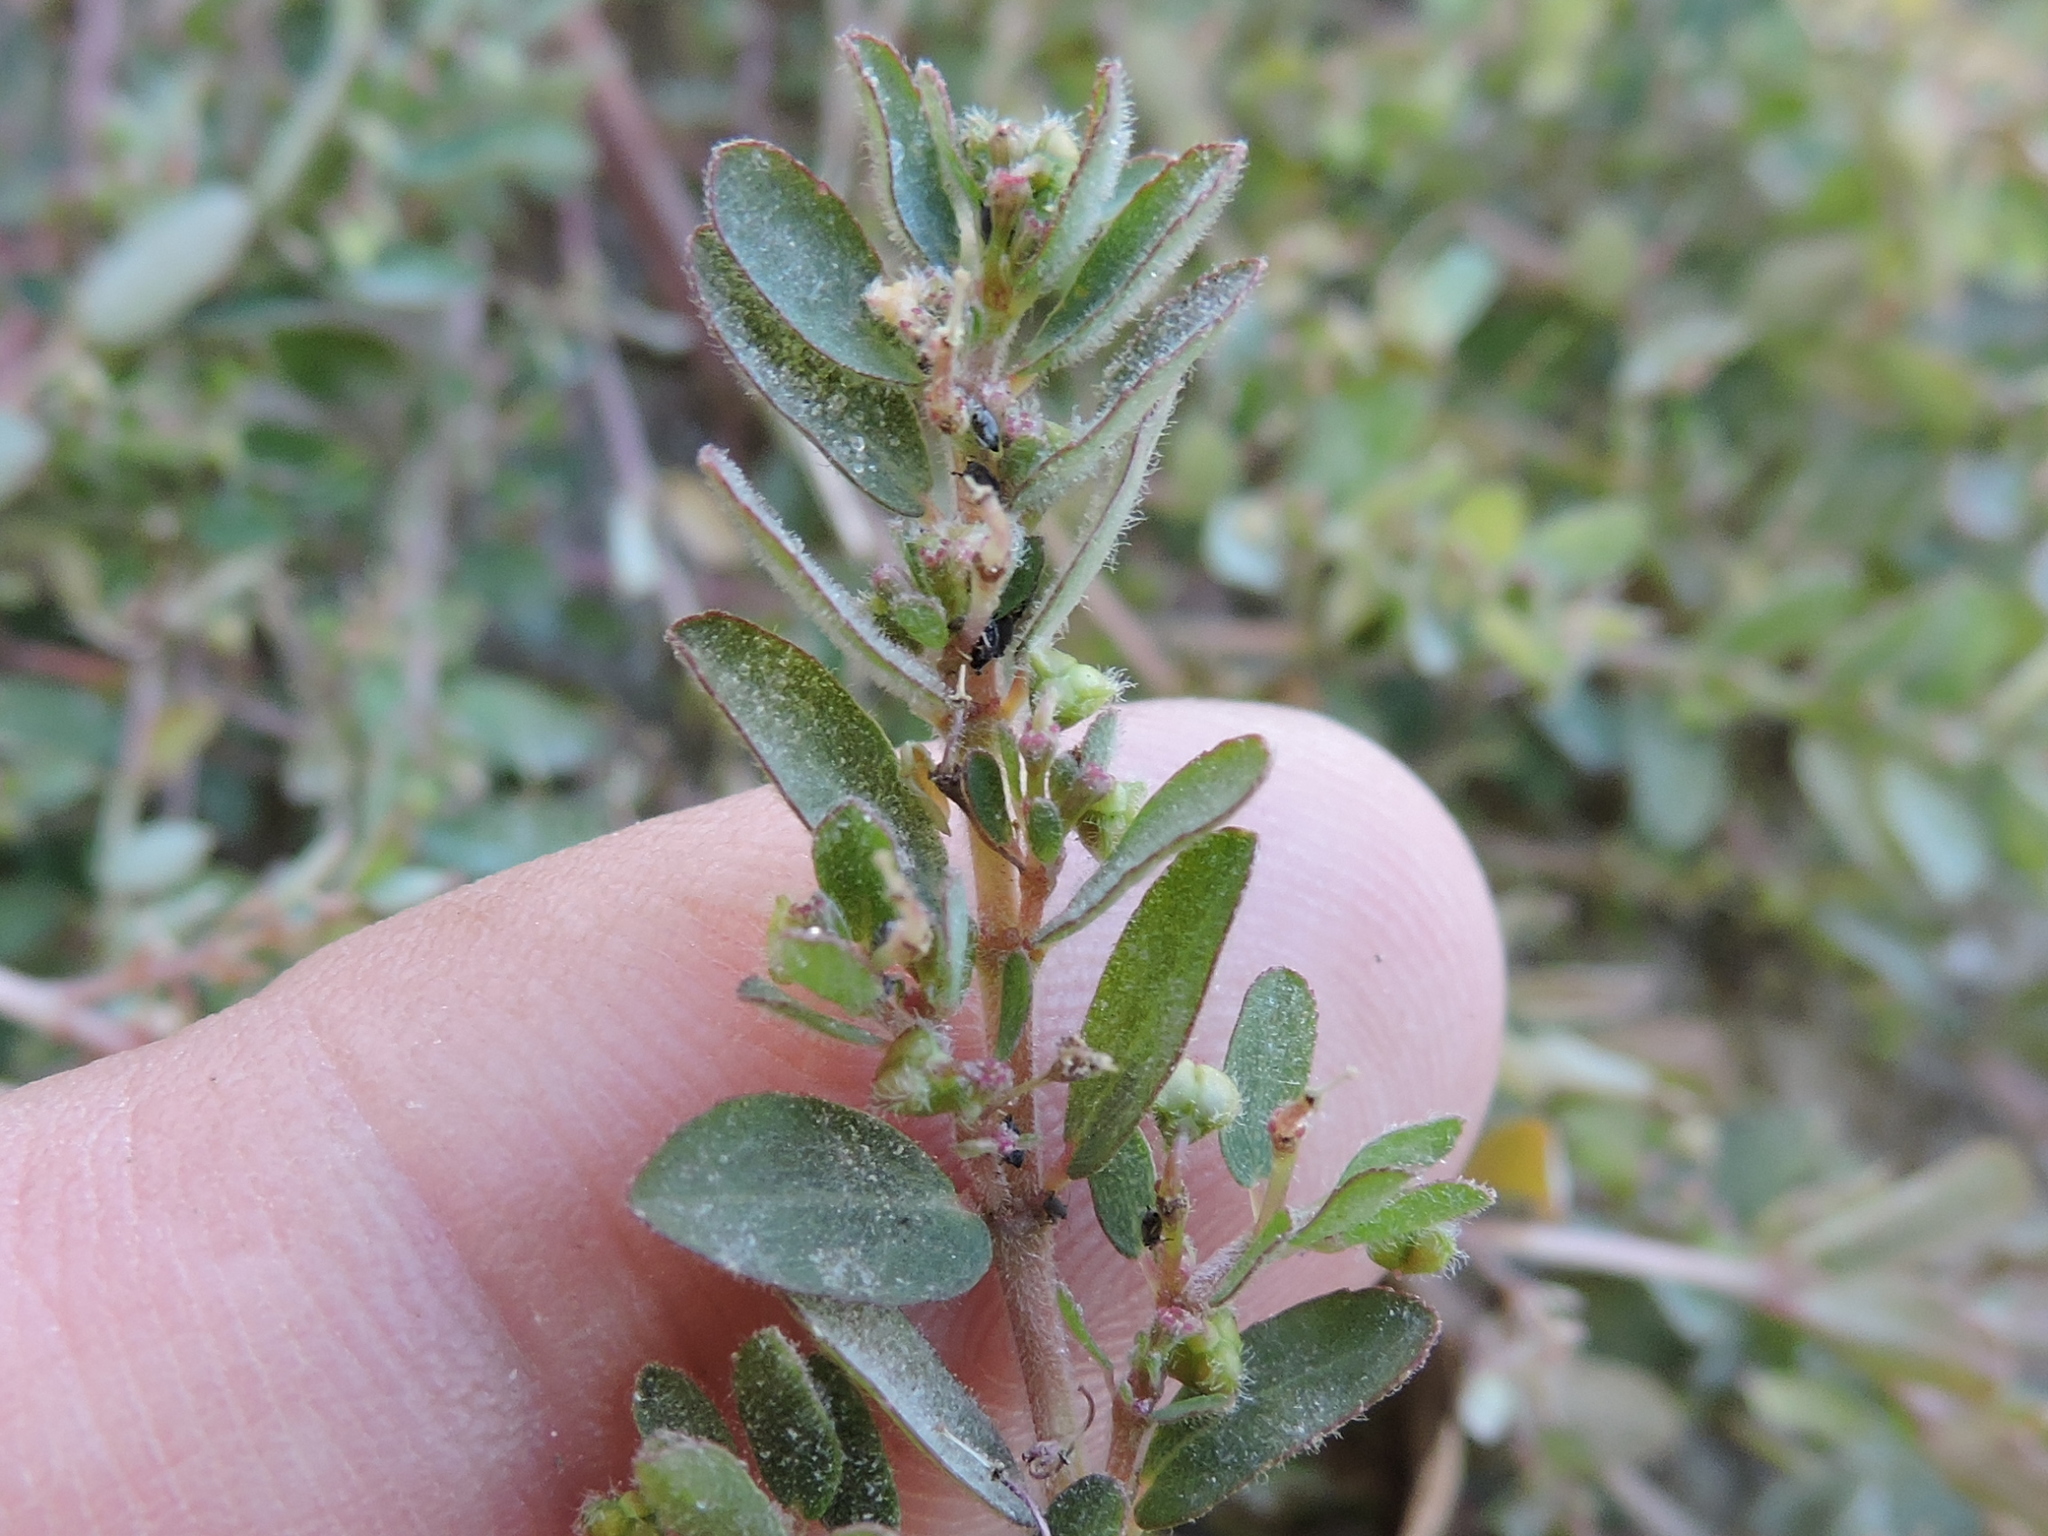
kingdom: Plantae
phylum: Tracheophyta
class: Magnoliopsida
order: Malpighiales
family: Euphorbiaceae
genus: Euphorbia
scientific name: Euphorbia prostrata
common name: Prostrate sandmat
